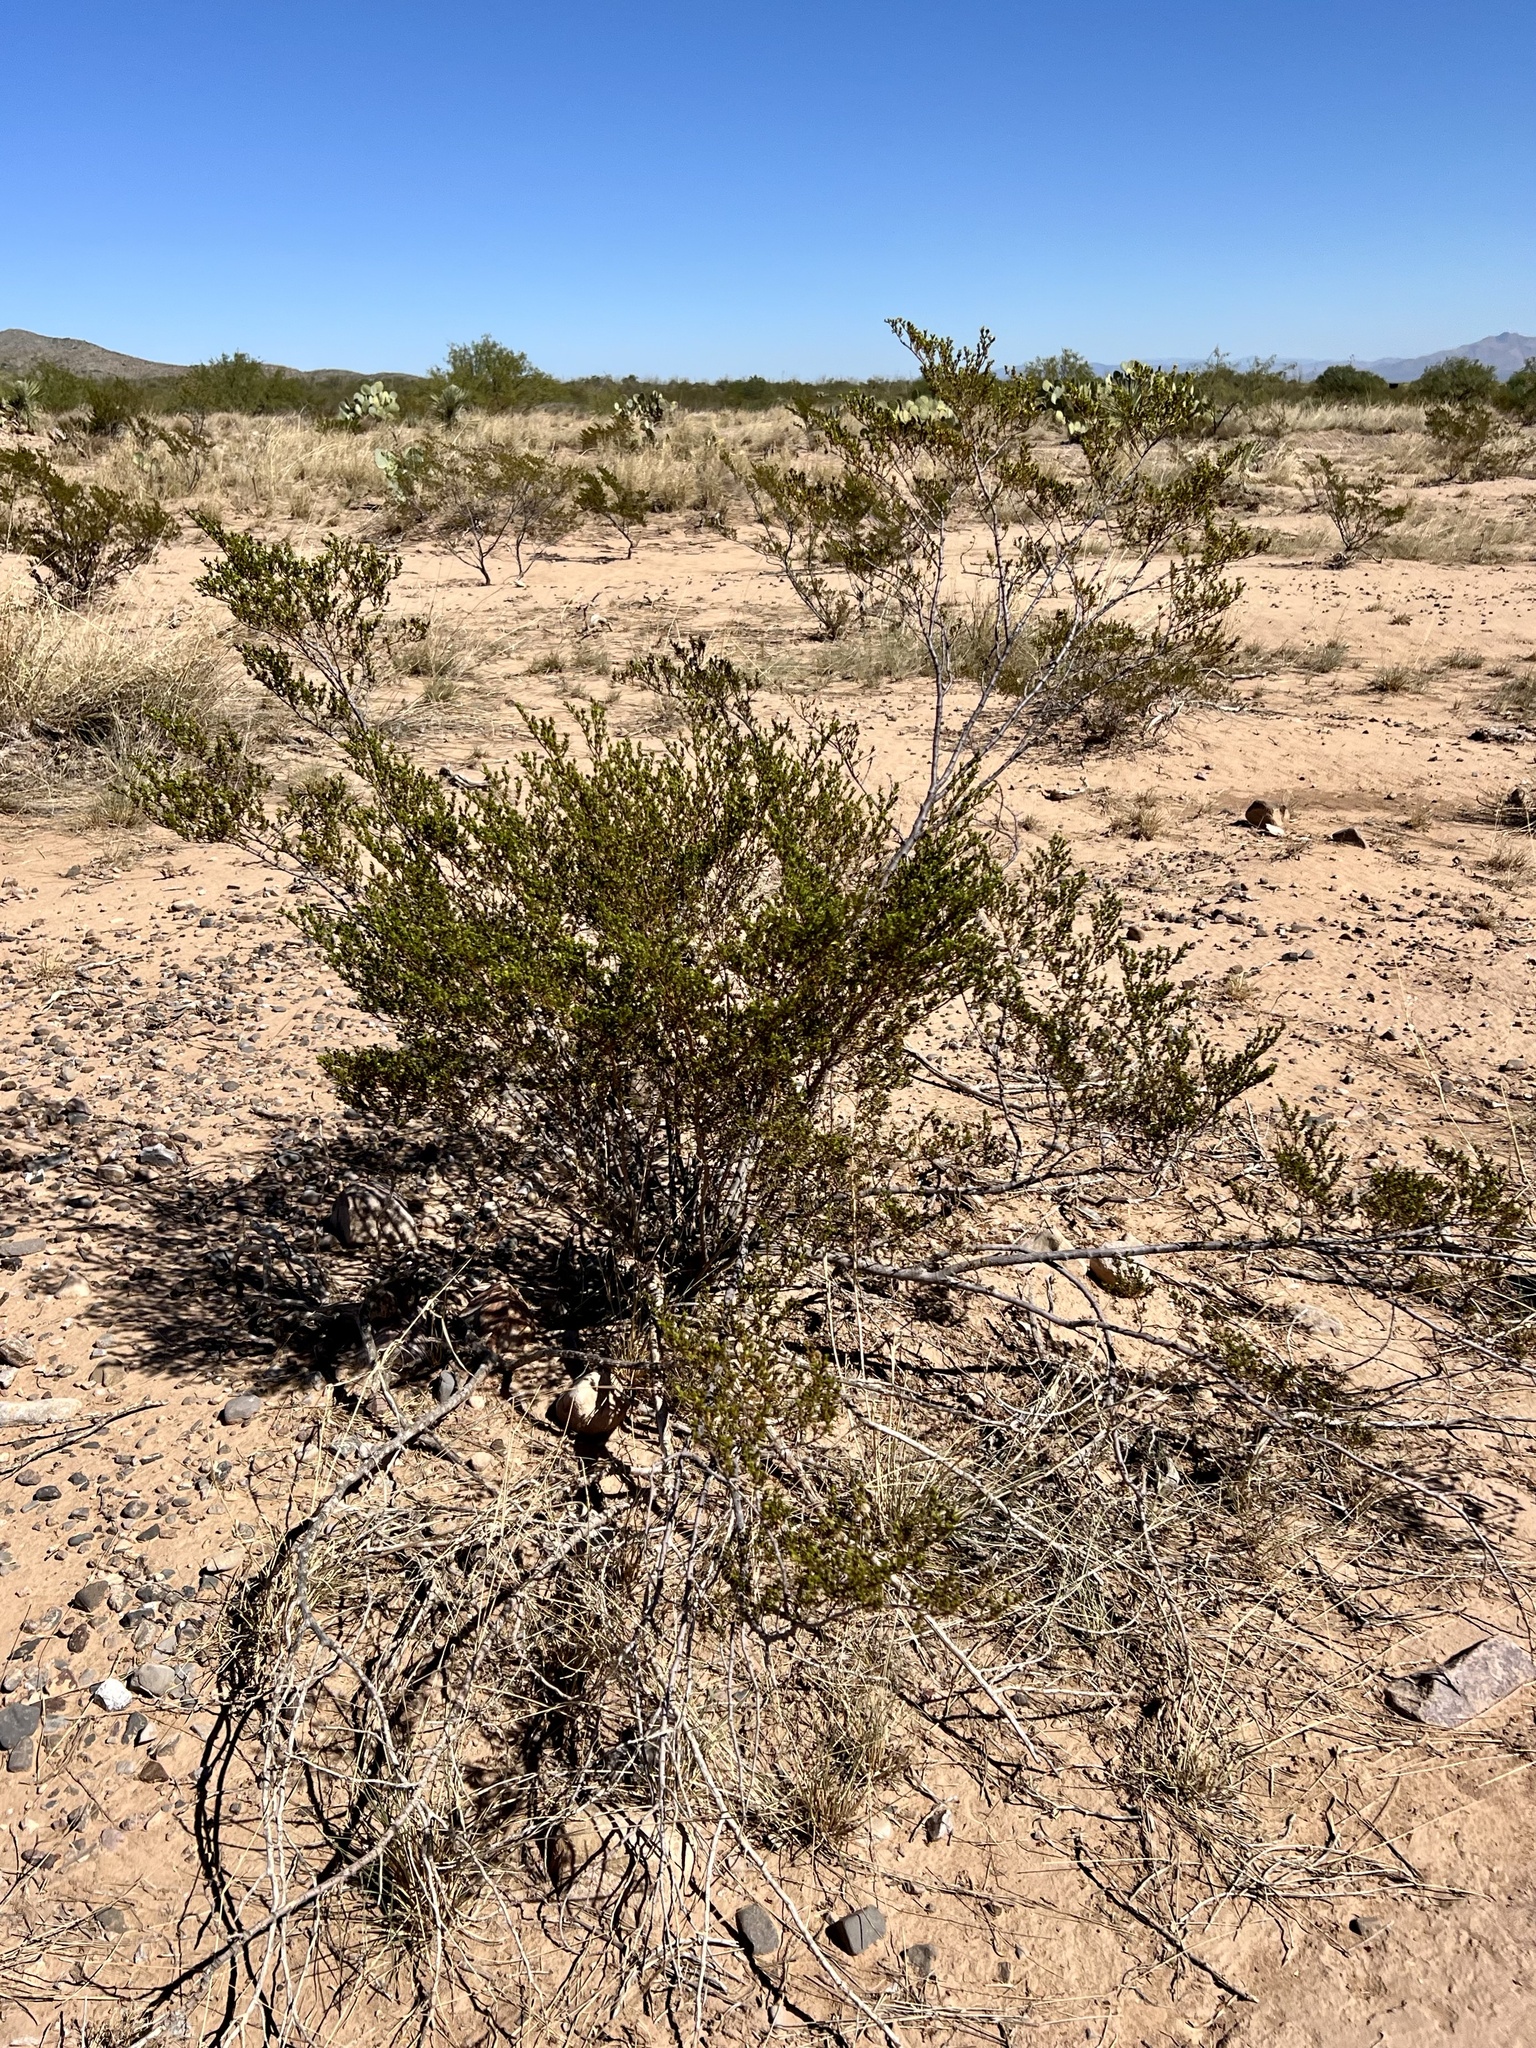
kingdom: Plantae
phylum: Tracheophyta
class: Magnoliopsida
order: Zygophyllales
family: Zygophyllaceae
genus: Larrea
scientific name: Larrea tridentata
